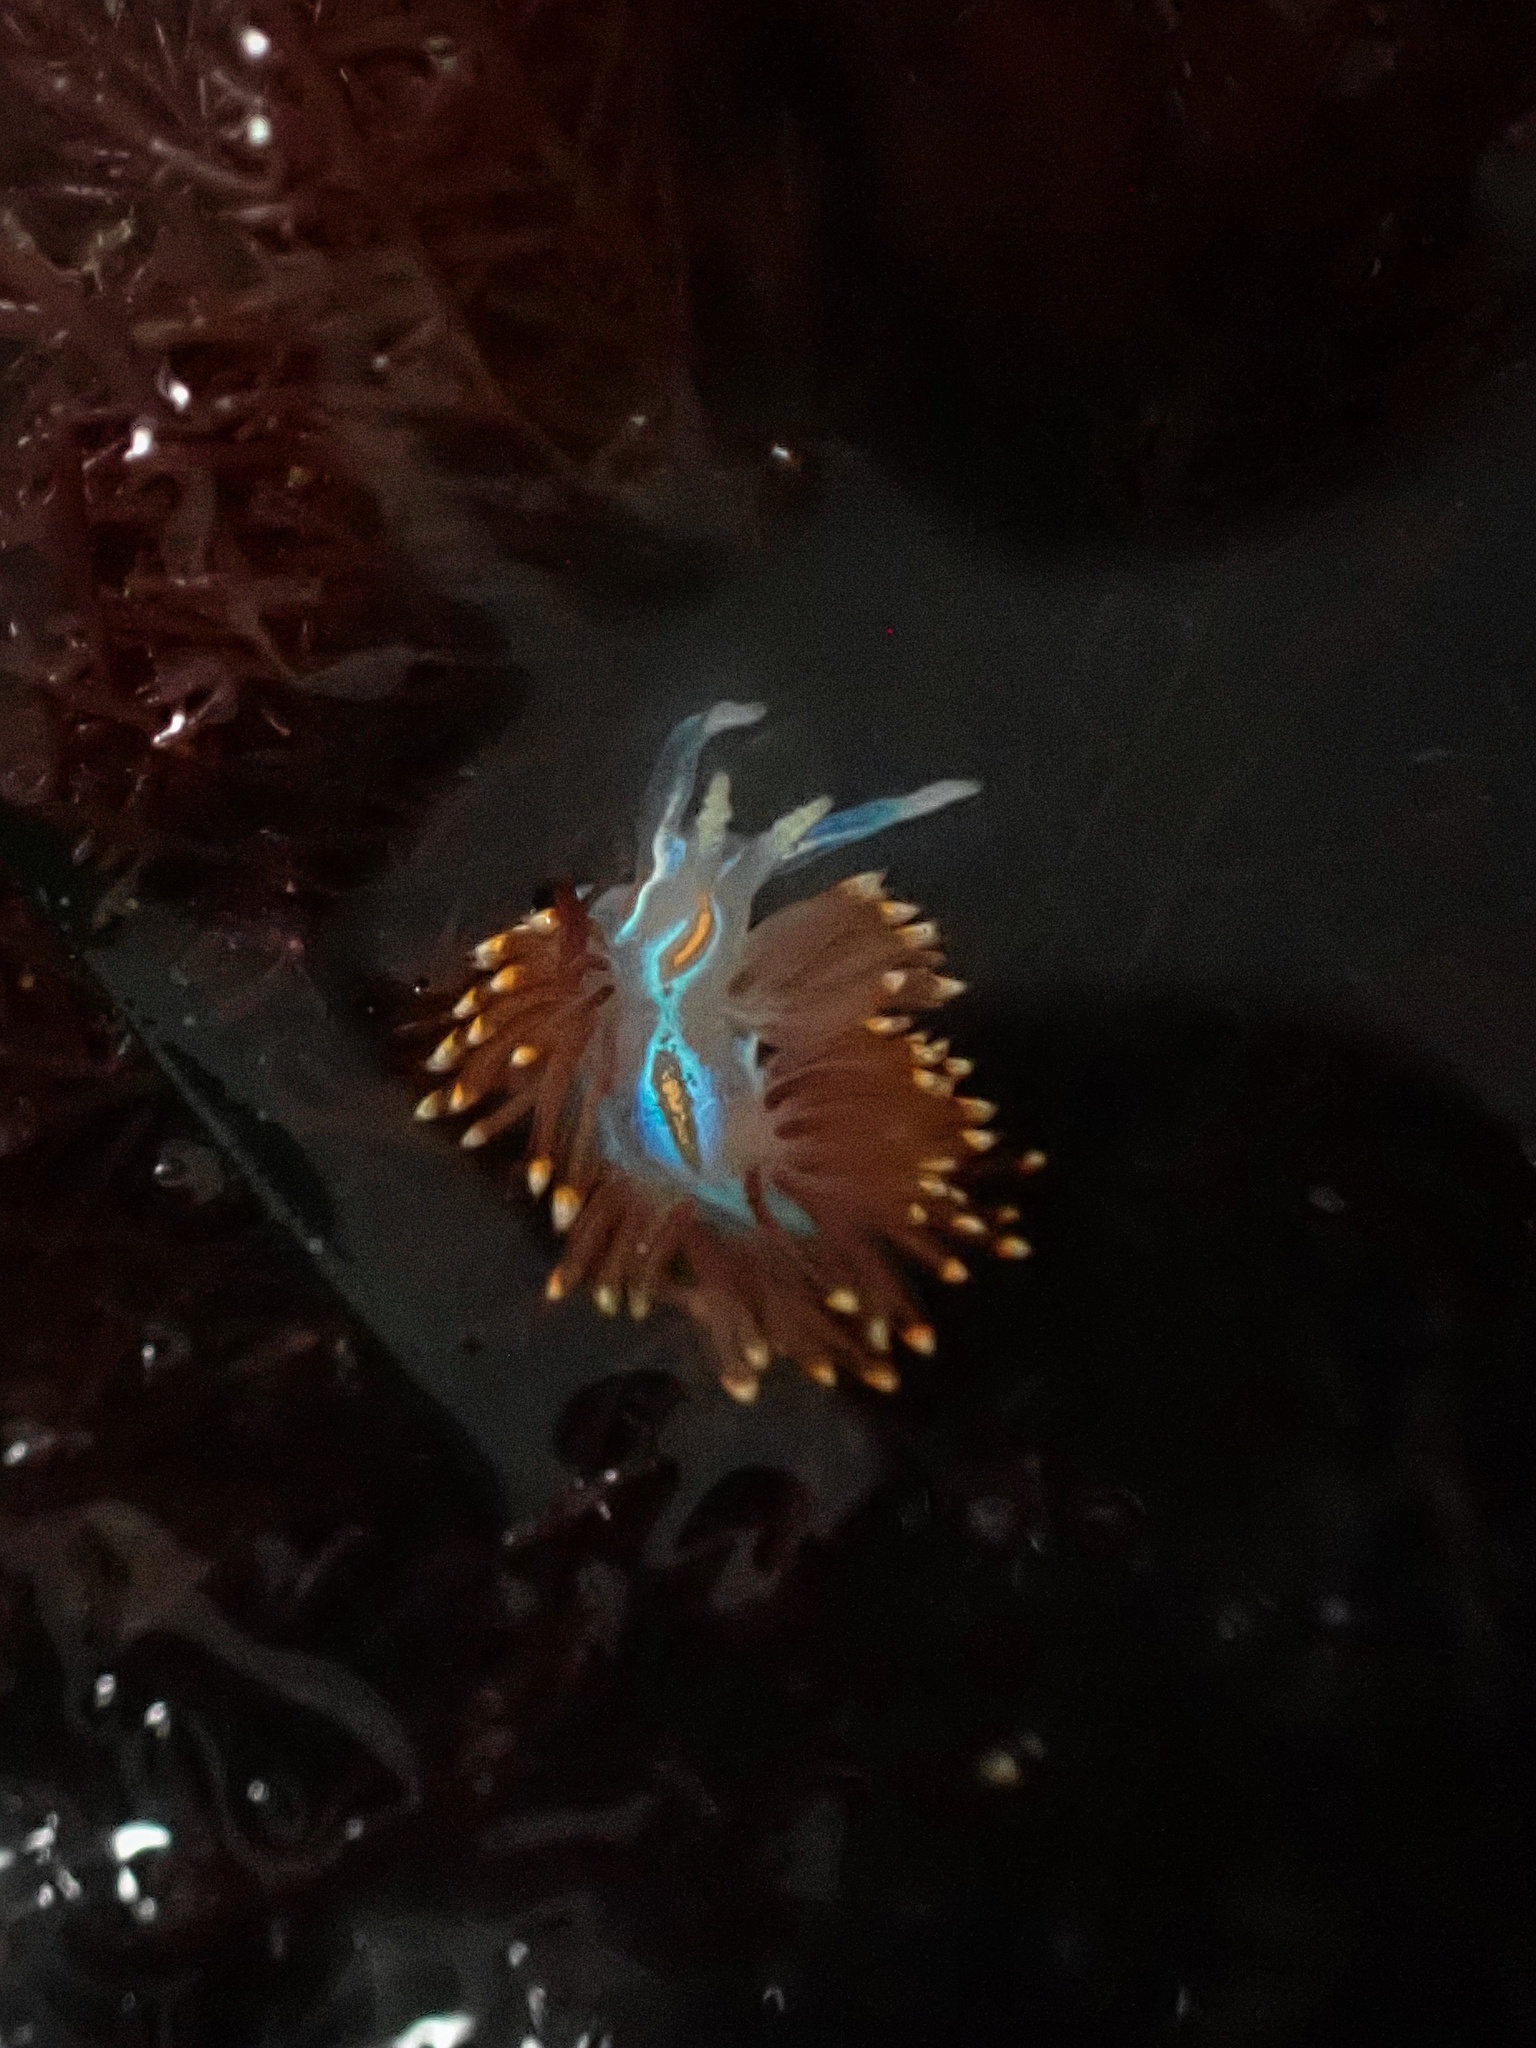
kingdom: Animalia
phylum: Mollusca
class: Gastropoda
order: Nudibranchia
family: Myrrhinidae
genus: Hermissenda
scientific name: Hermissenda opalescens
